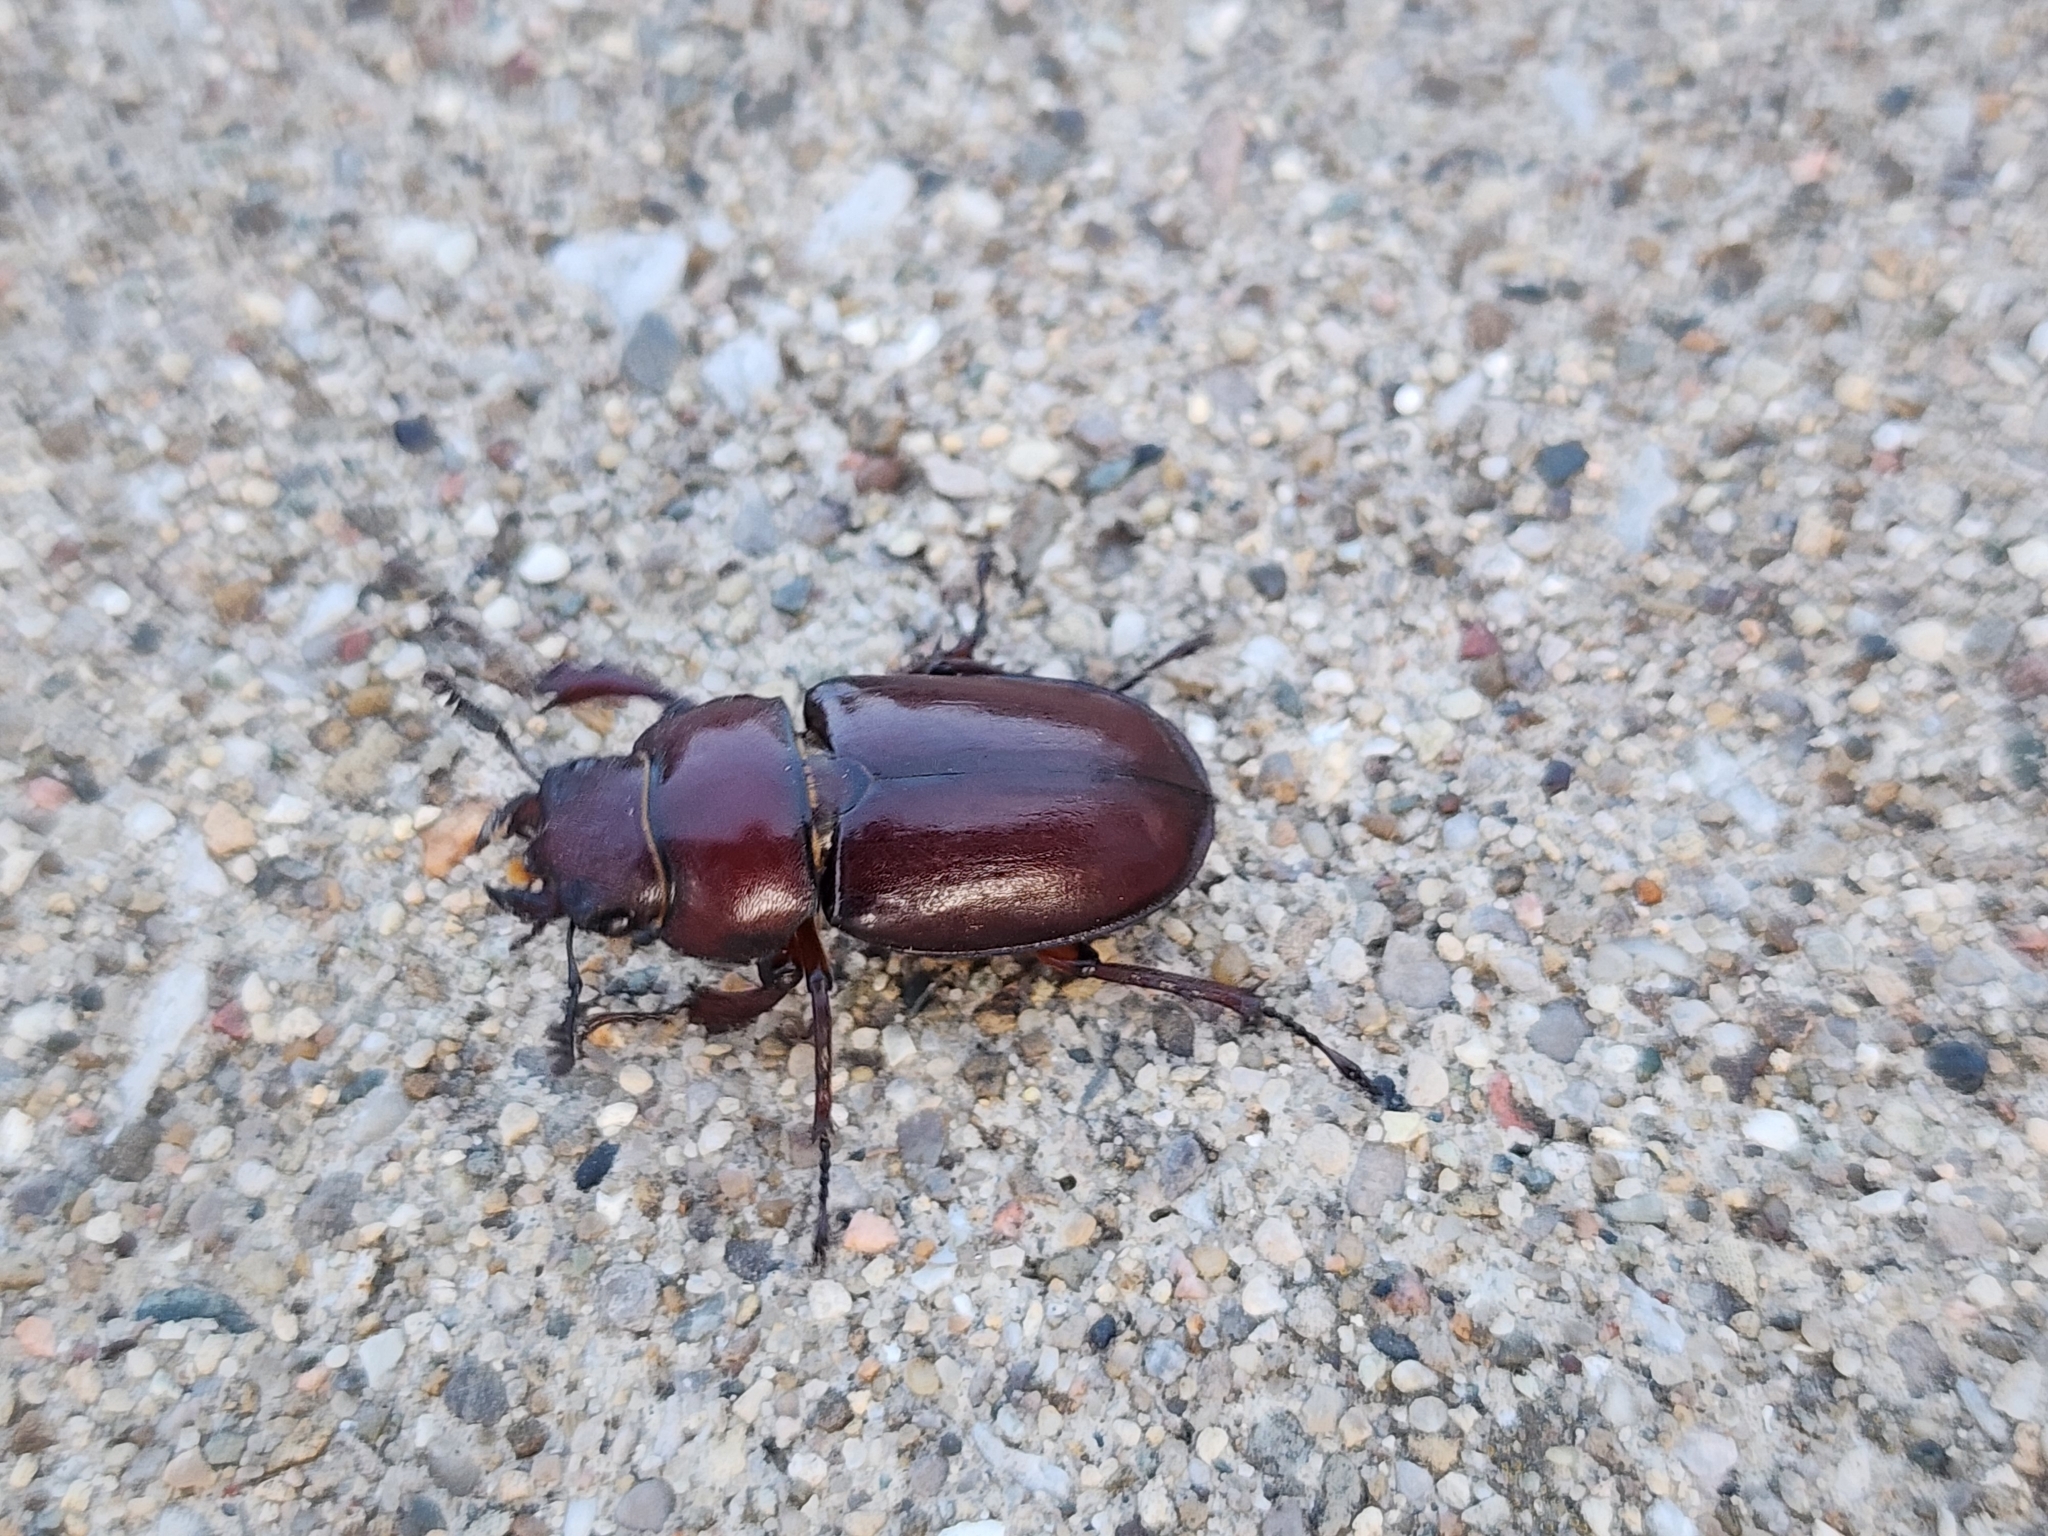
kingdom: Animalia
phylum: Arthropoda
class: Insecta
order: Coleoptera
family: Lucanidae
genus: Lucanus
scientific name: Lucanus capreolus
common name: Stag beetle
